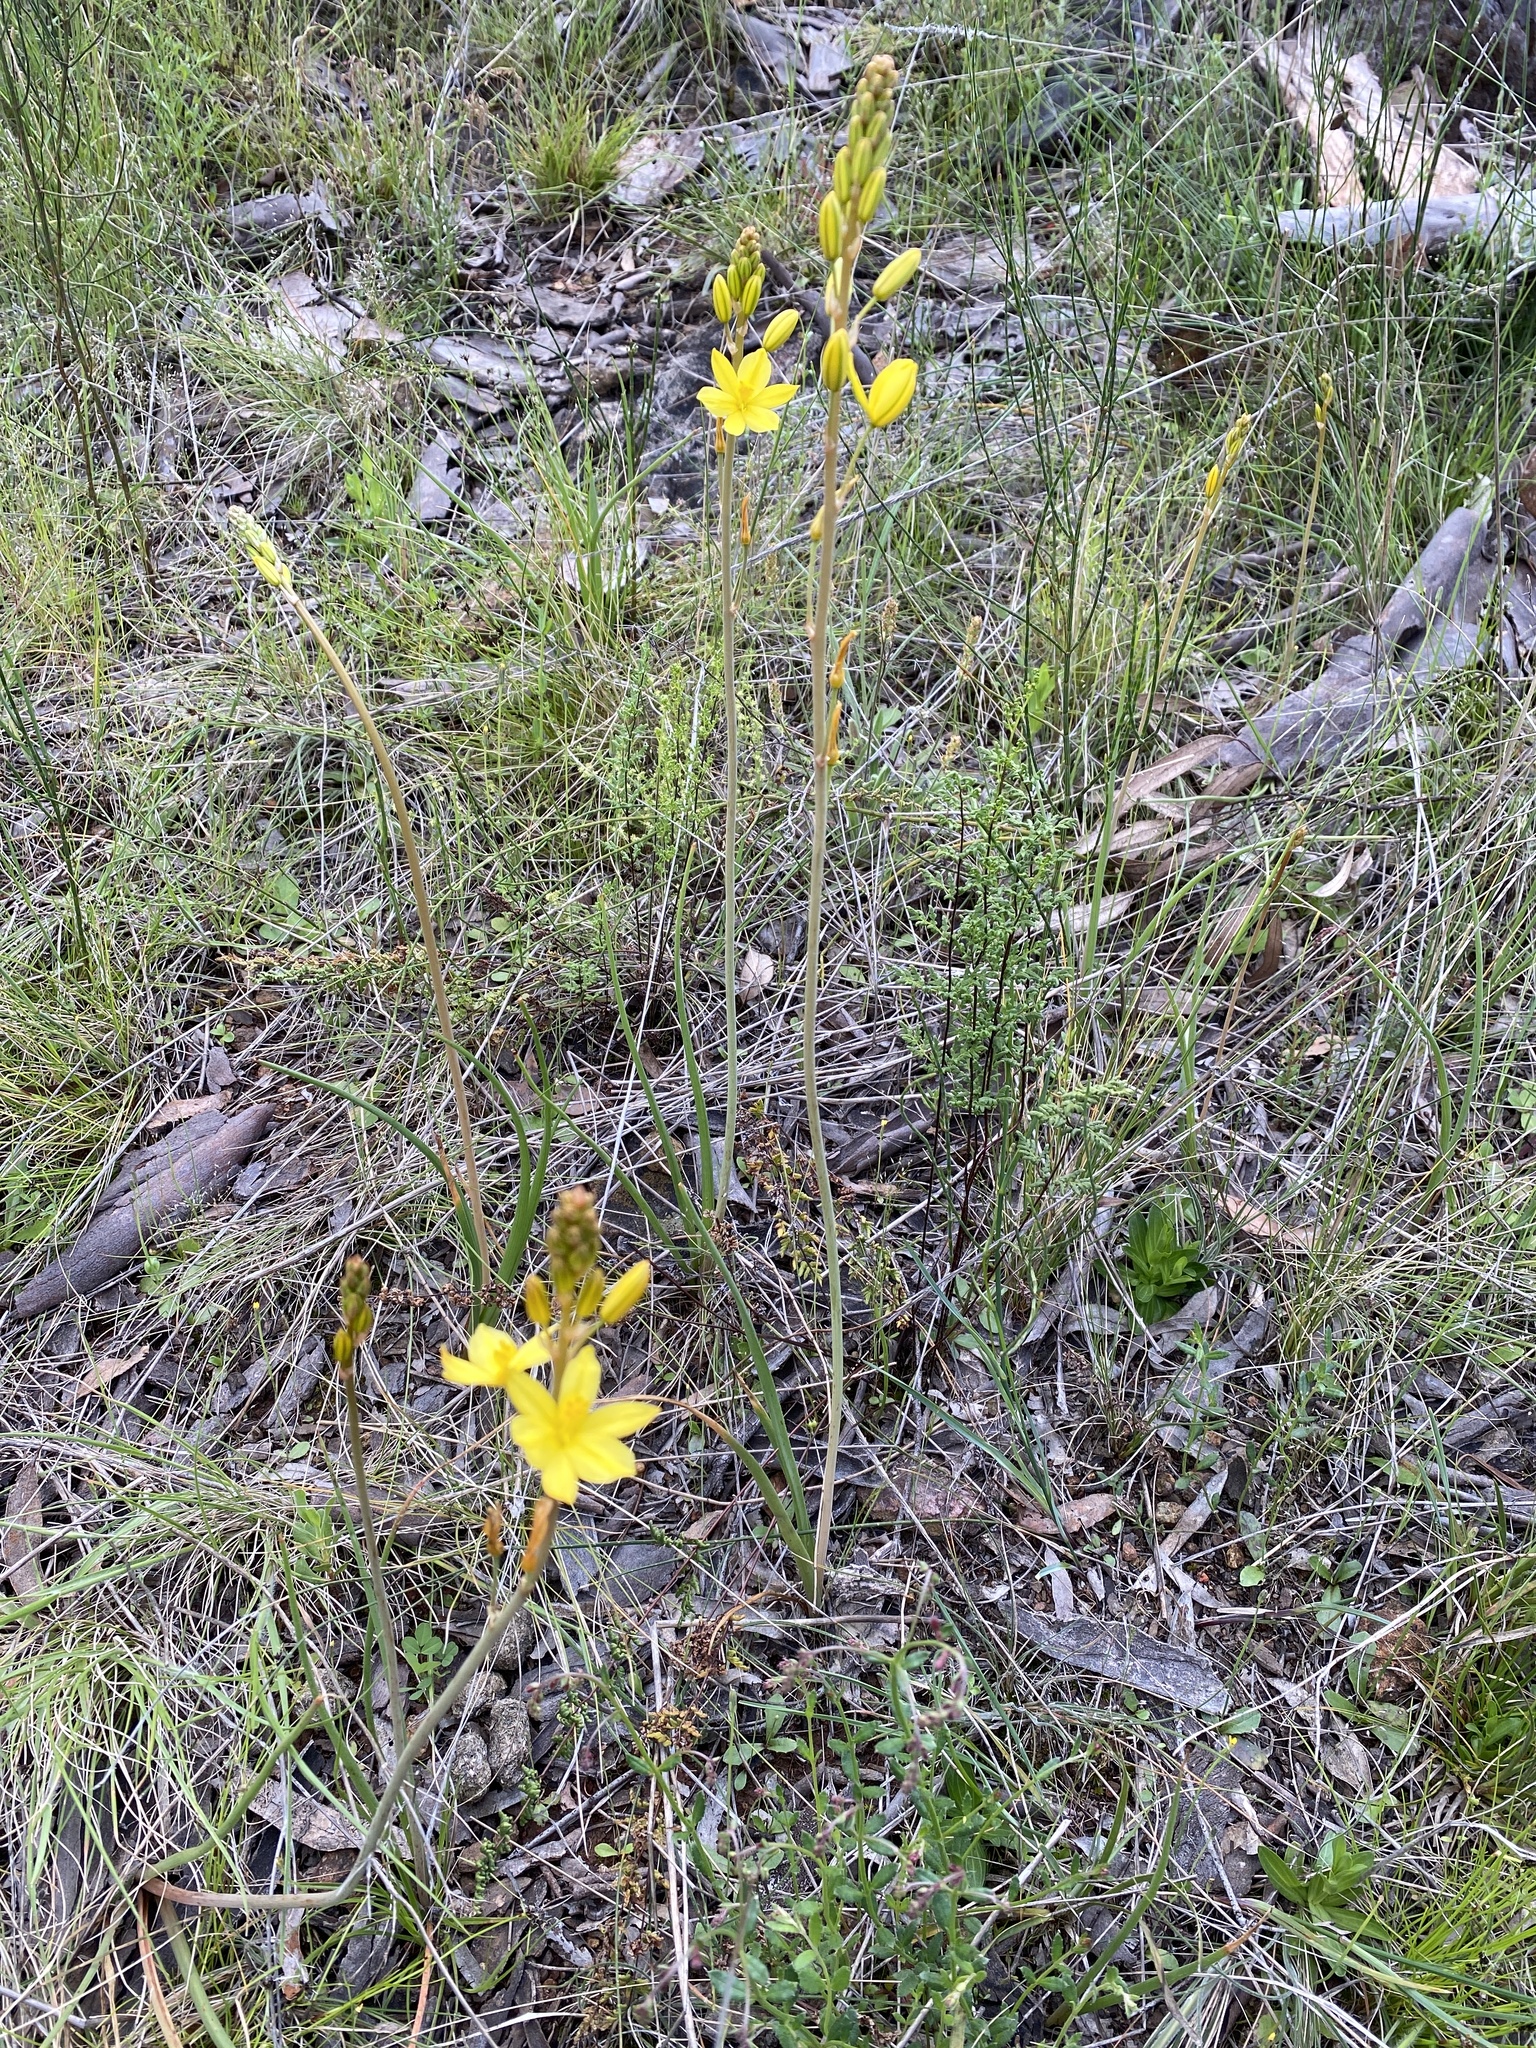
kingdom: Plantae
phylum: Tracheophyta
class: Liliopsida
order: Asparagales
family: Asphodelaceae
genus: Bulbine
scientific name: Bulbine bulbosa
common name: Golden-lily
